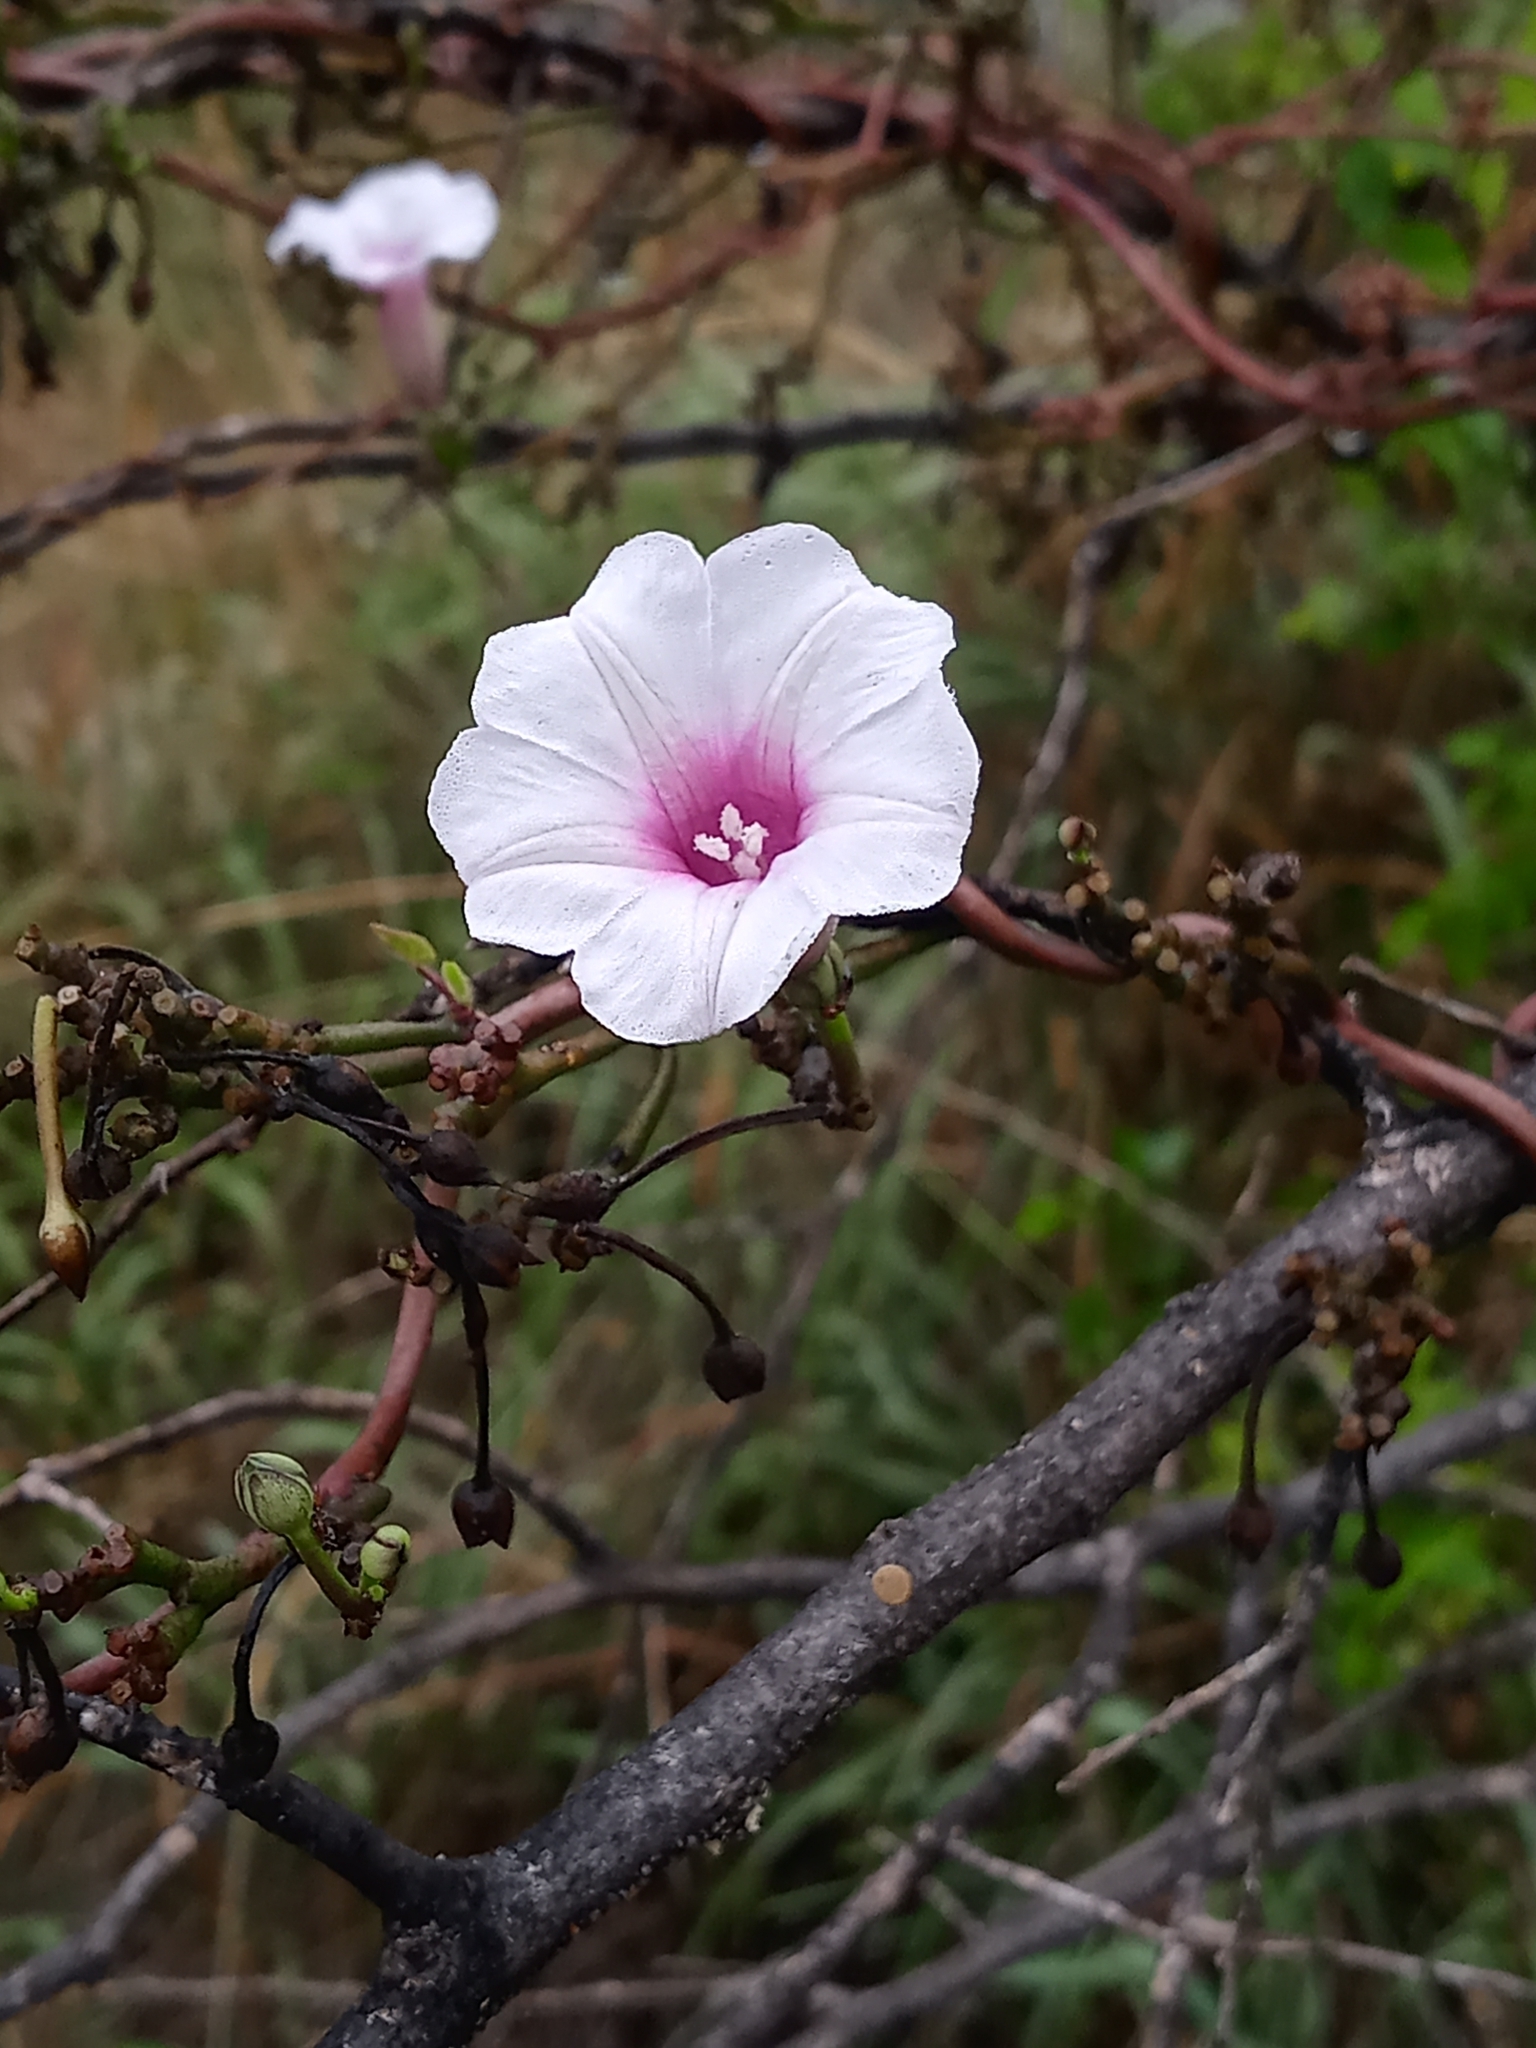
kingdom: Plantae
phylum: Tracheophyta
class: Magnoliopsida
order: Solanales
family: Convolvulaceae
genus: Ipomoea
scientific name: Ipomoea amnicola
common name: Redcenter morning-glory
